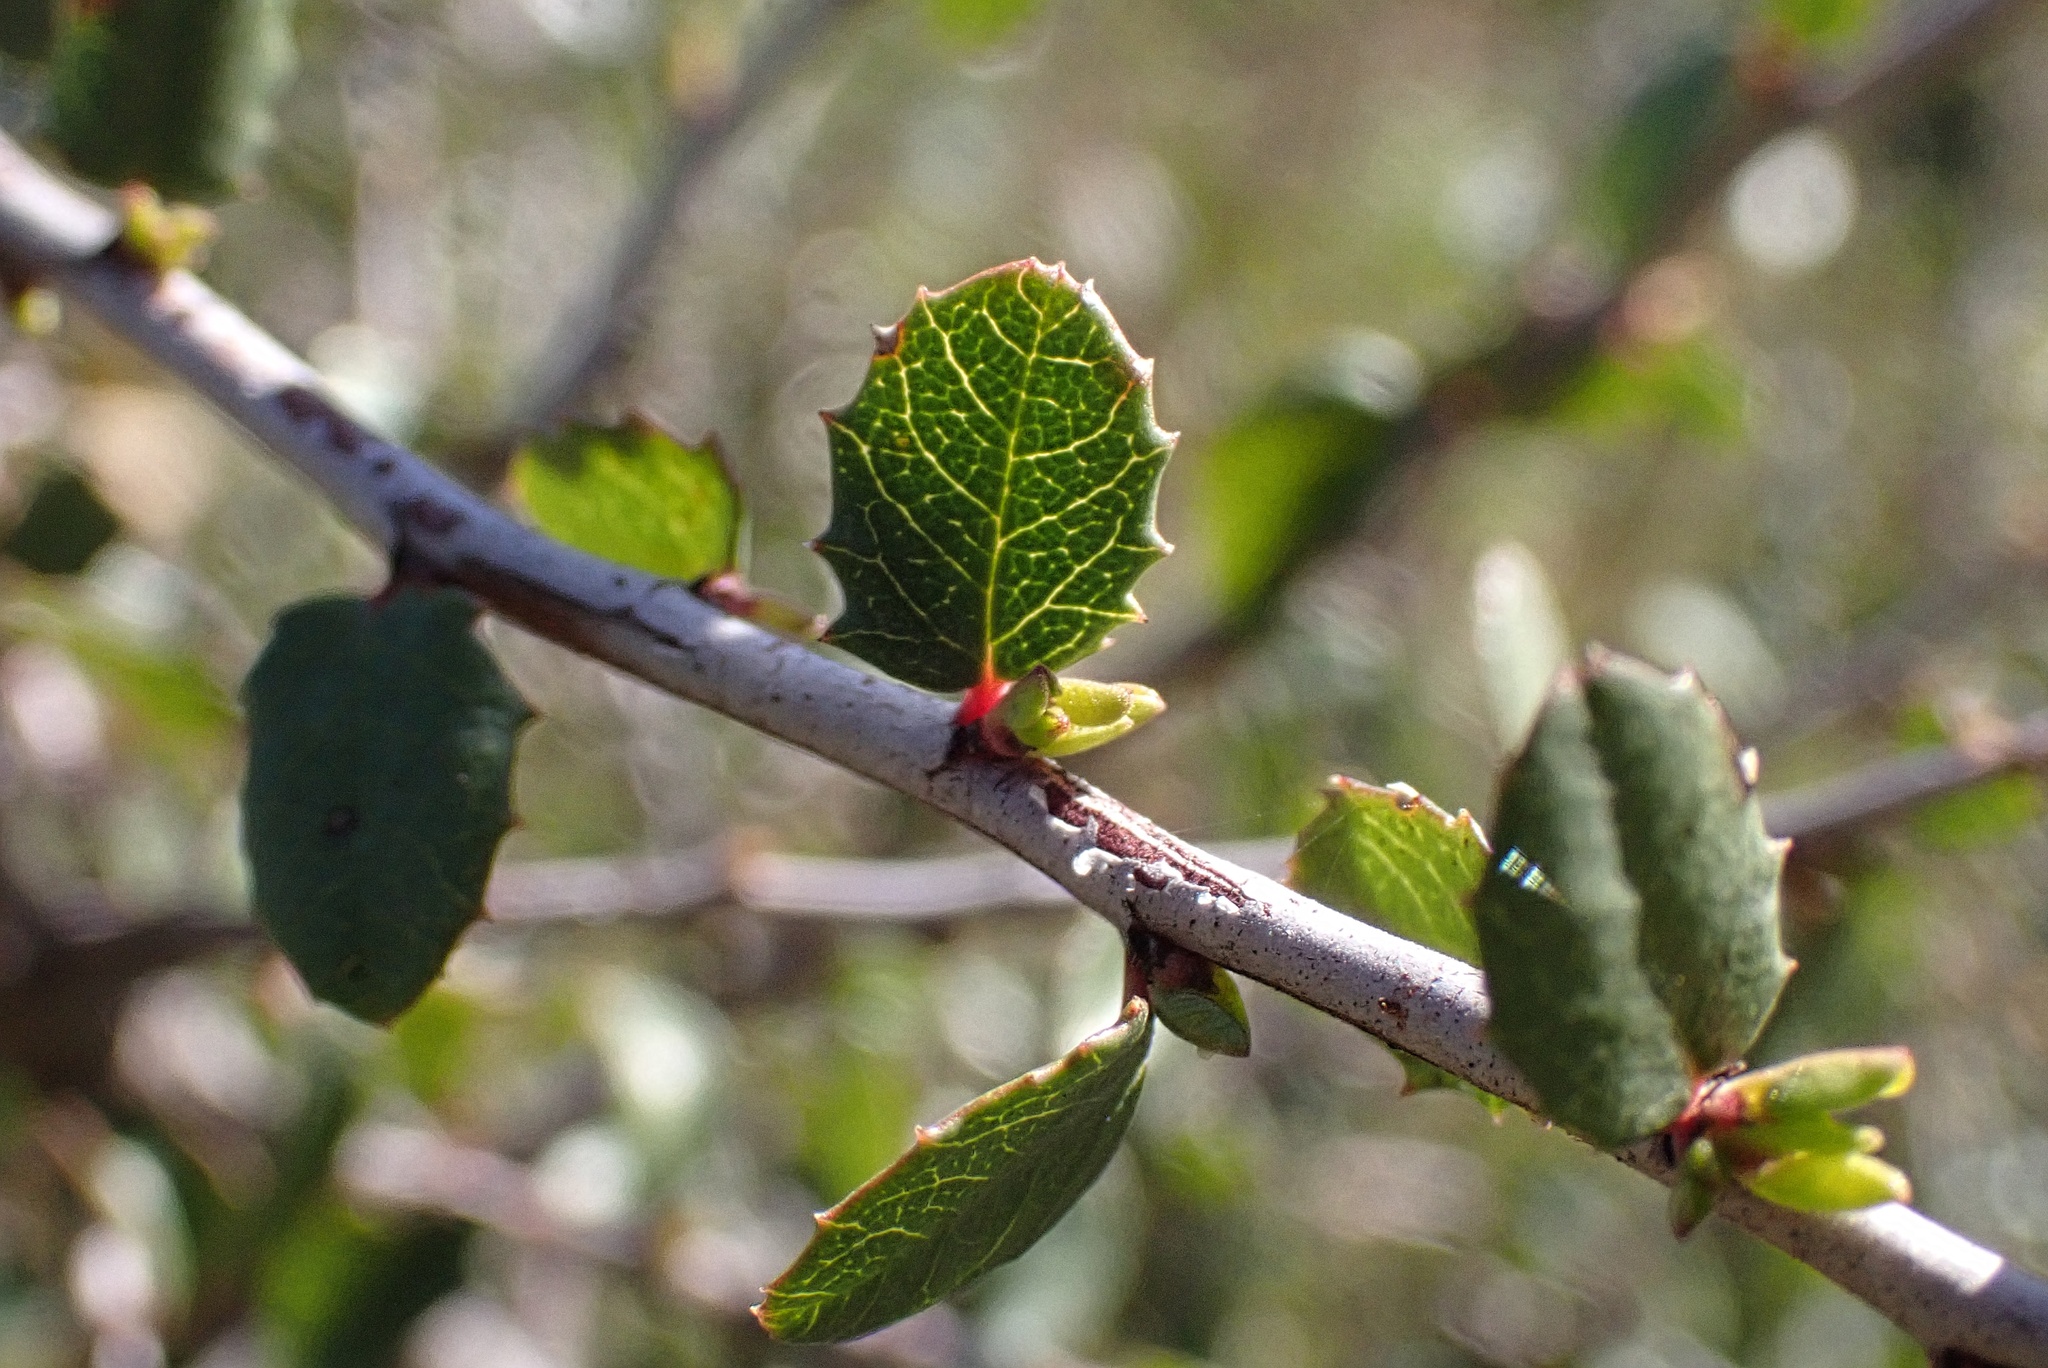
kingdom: Plantae
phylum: Tracheophyta
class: Magnoliopsida
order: Rosales
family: Rhamnaceae
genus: Endotropis
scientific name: Endotropis crocea
